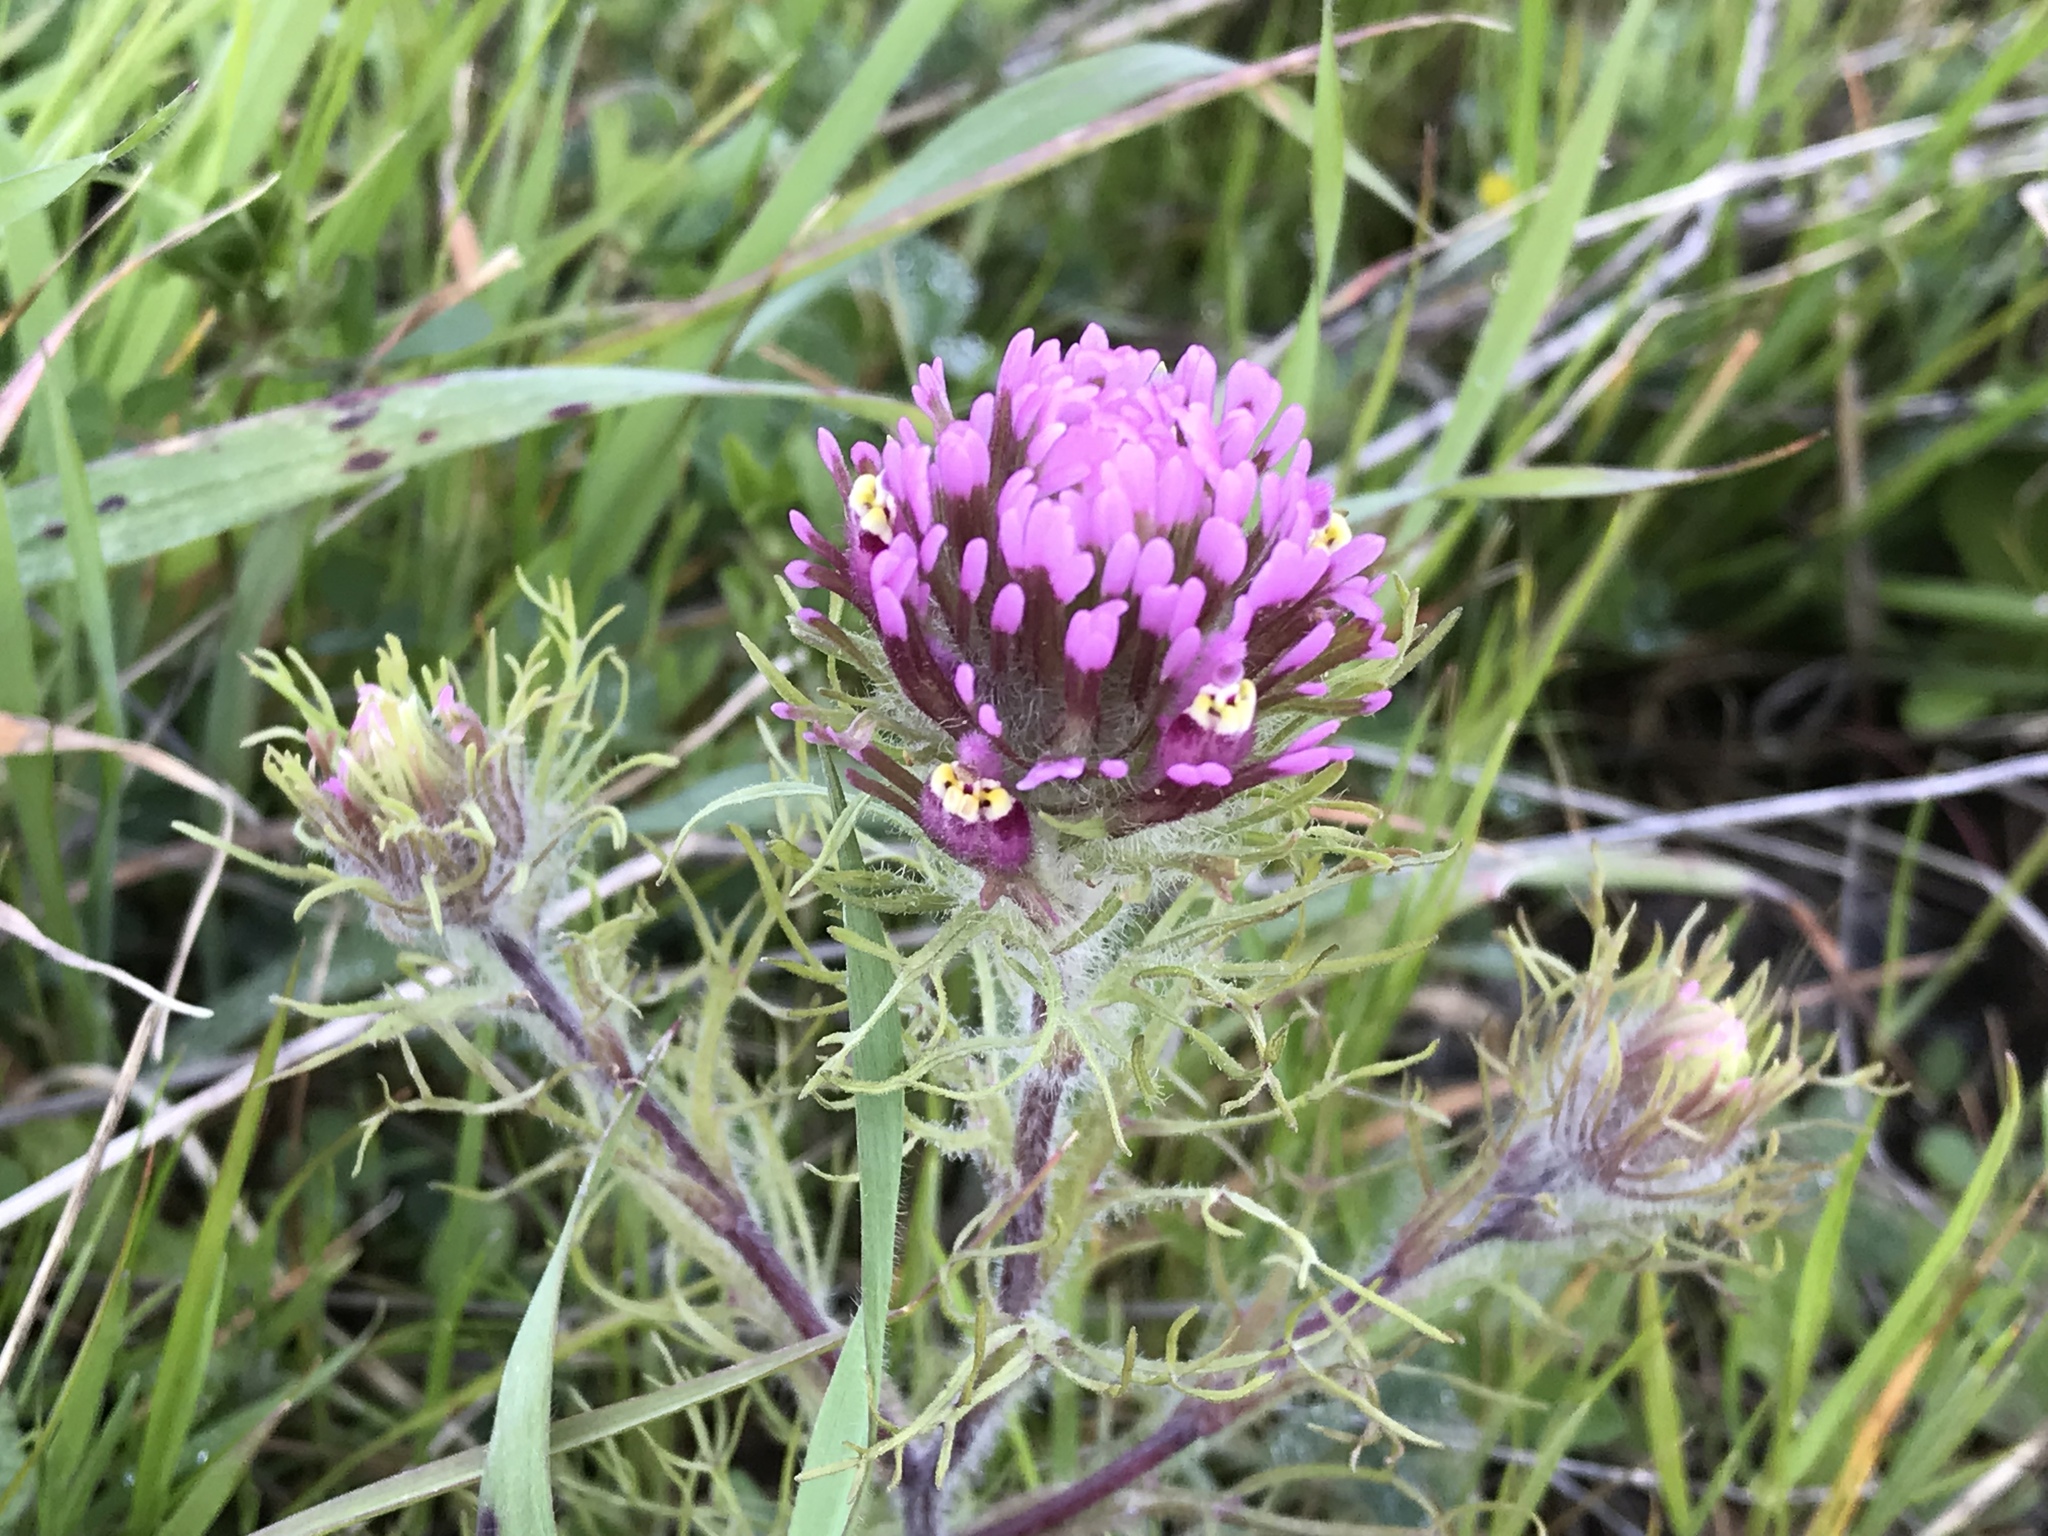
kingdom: Plantae
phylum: Tracheophyta
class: Magnoliopsida
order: Lamiales
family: Orobanchaceae
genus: Castilleja
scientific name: Castilleja exserta
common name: Purple owl-clover
